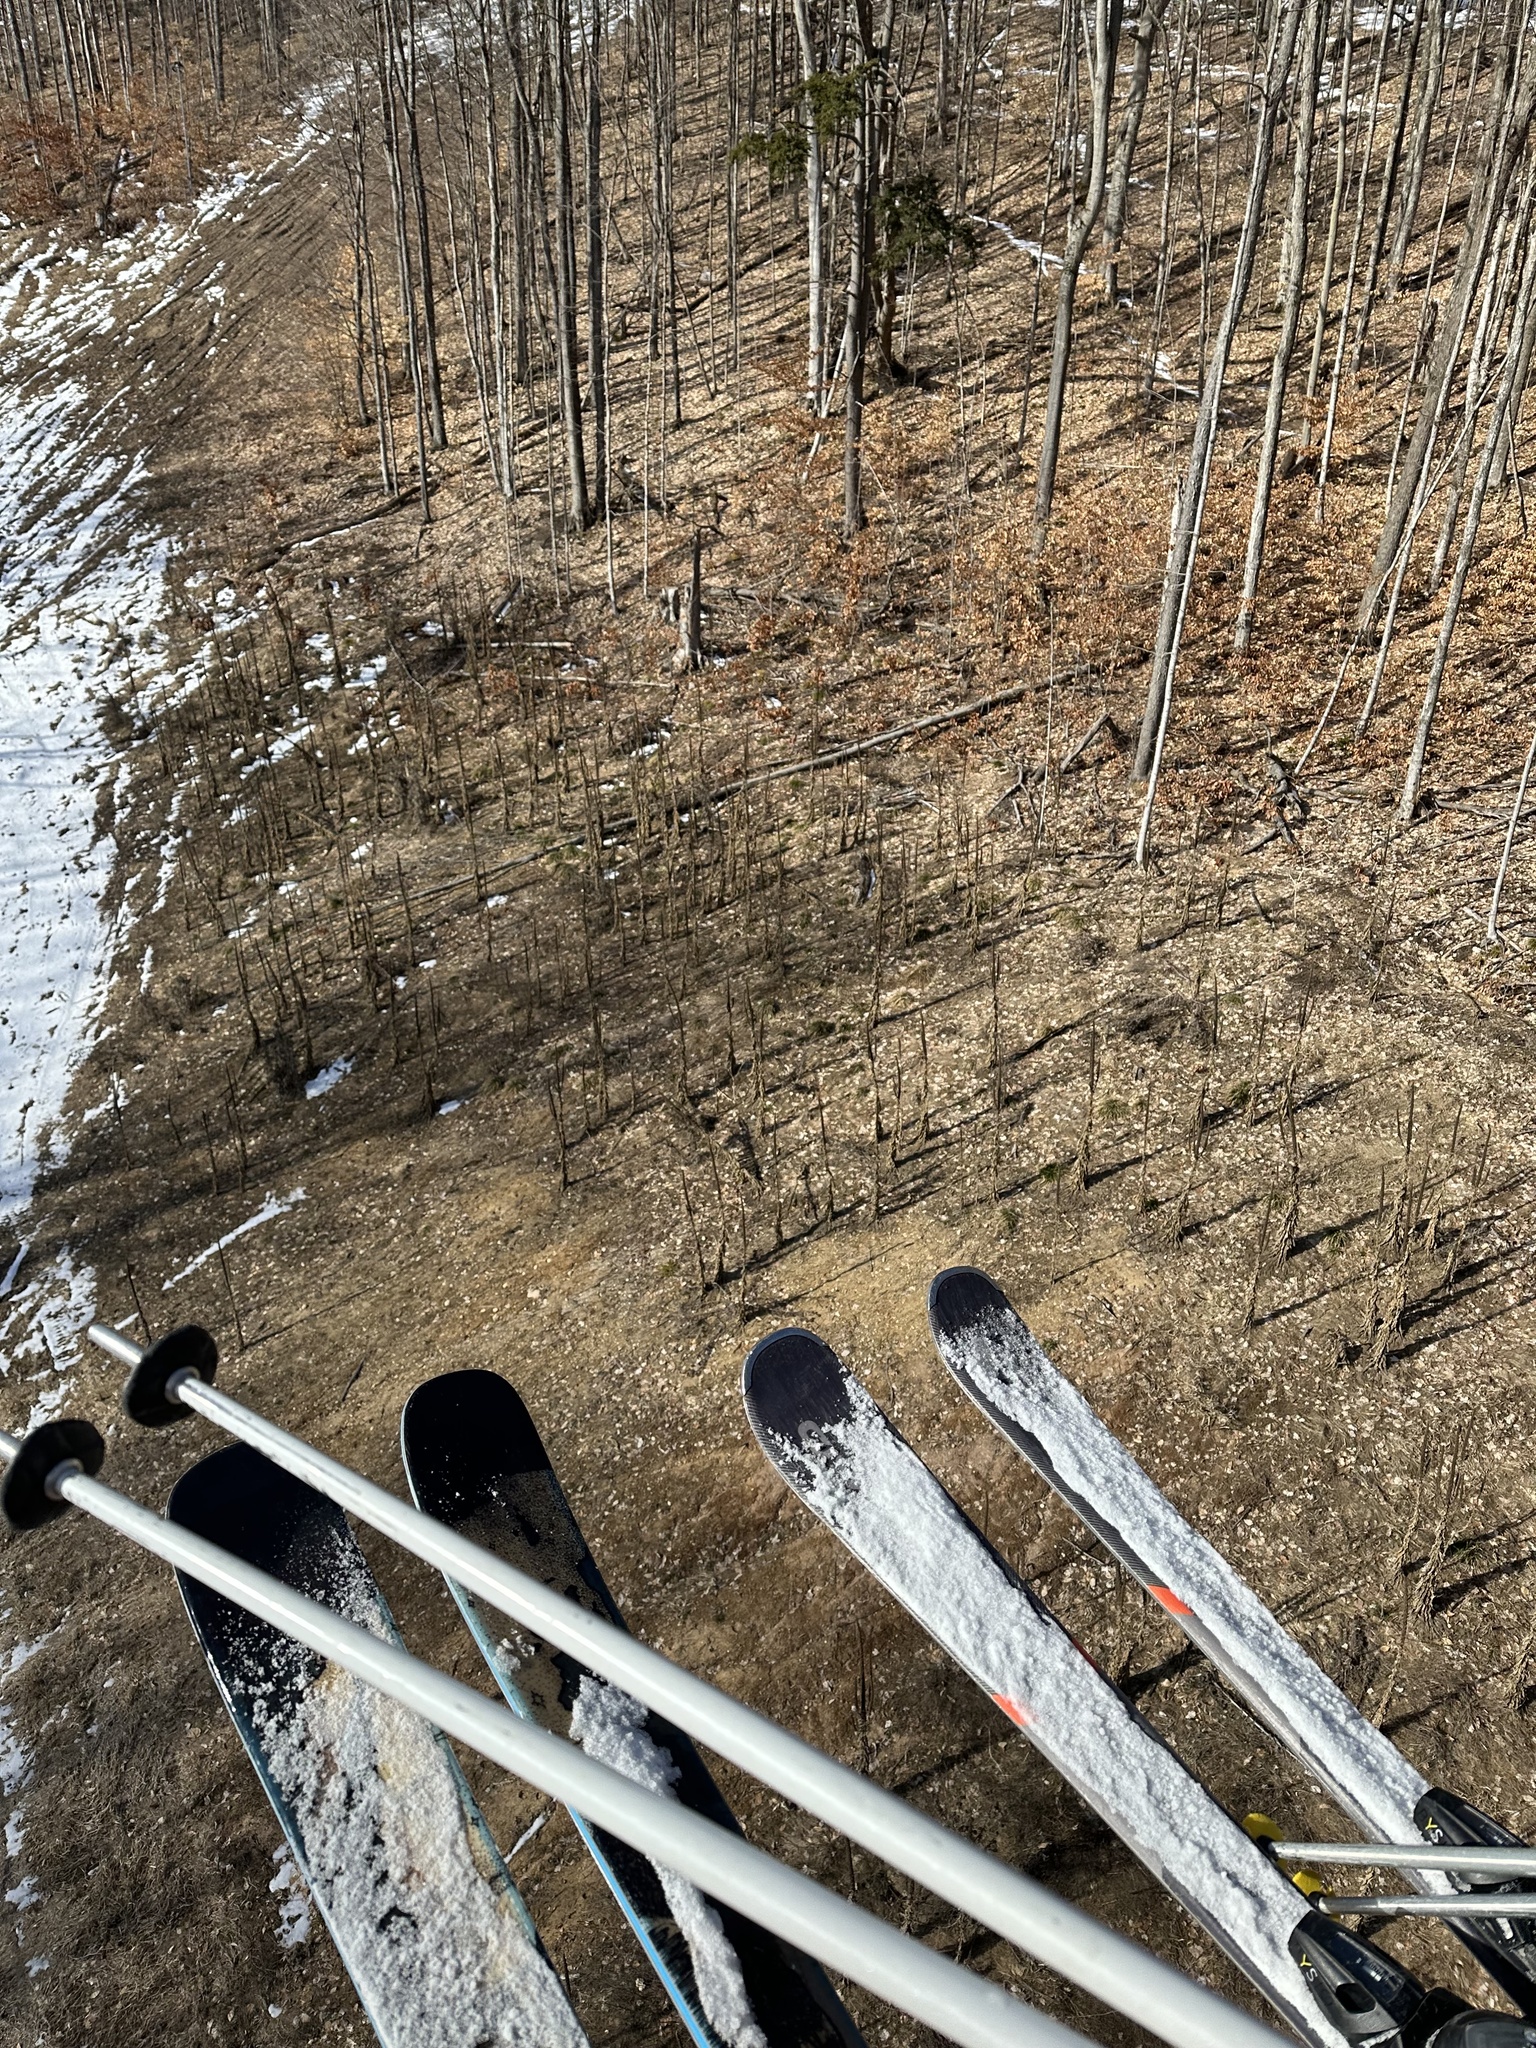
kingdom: Plantae
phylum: Tracheophyta
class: Magnoliopsida
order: Lamiales
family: Scrophulariaceae
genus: Verbascum
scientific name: Verbascum thapsus
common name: Common mullein
